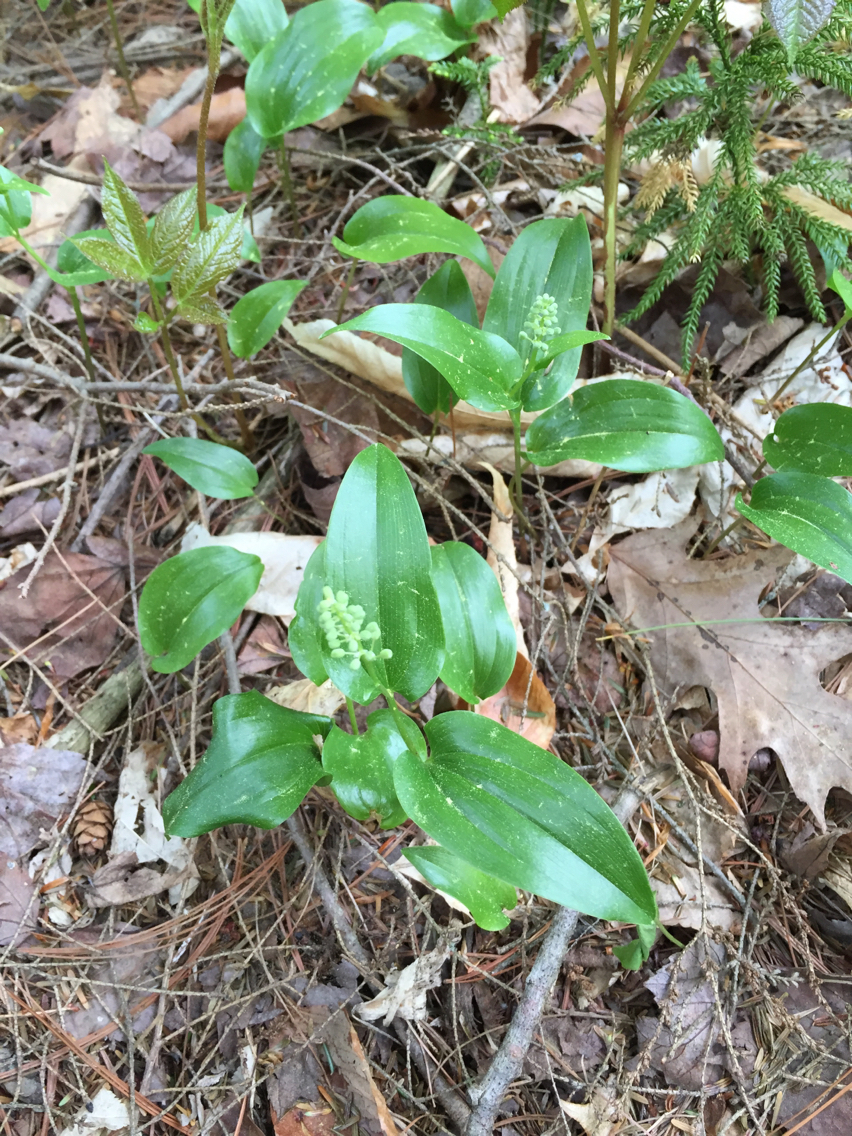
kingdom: Plantae
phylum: Tracheophyta
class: Liliopsida
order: Asparagales
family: Asparagaceae
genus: Maianthemum
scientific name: Maianthemum canadense
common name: False lily-of-the-valley
